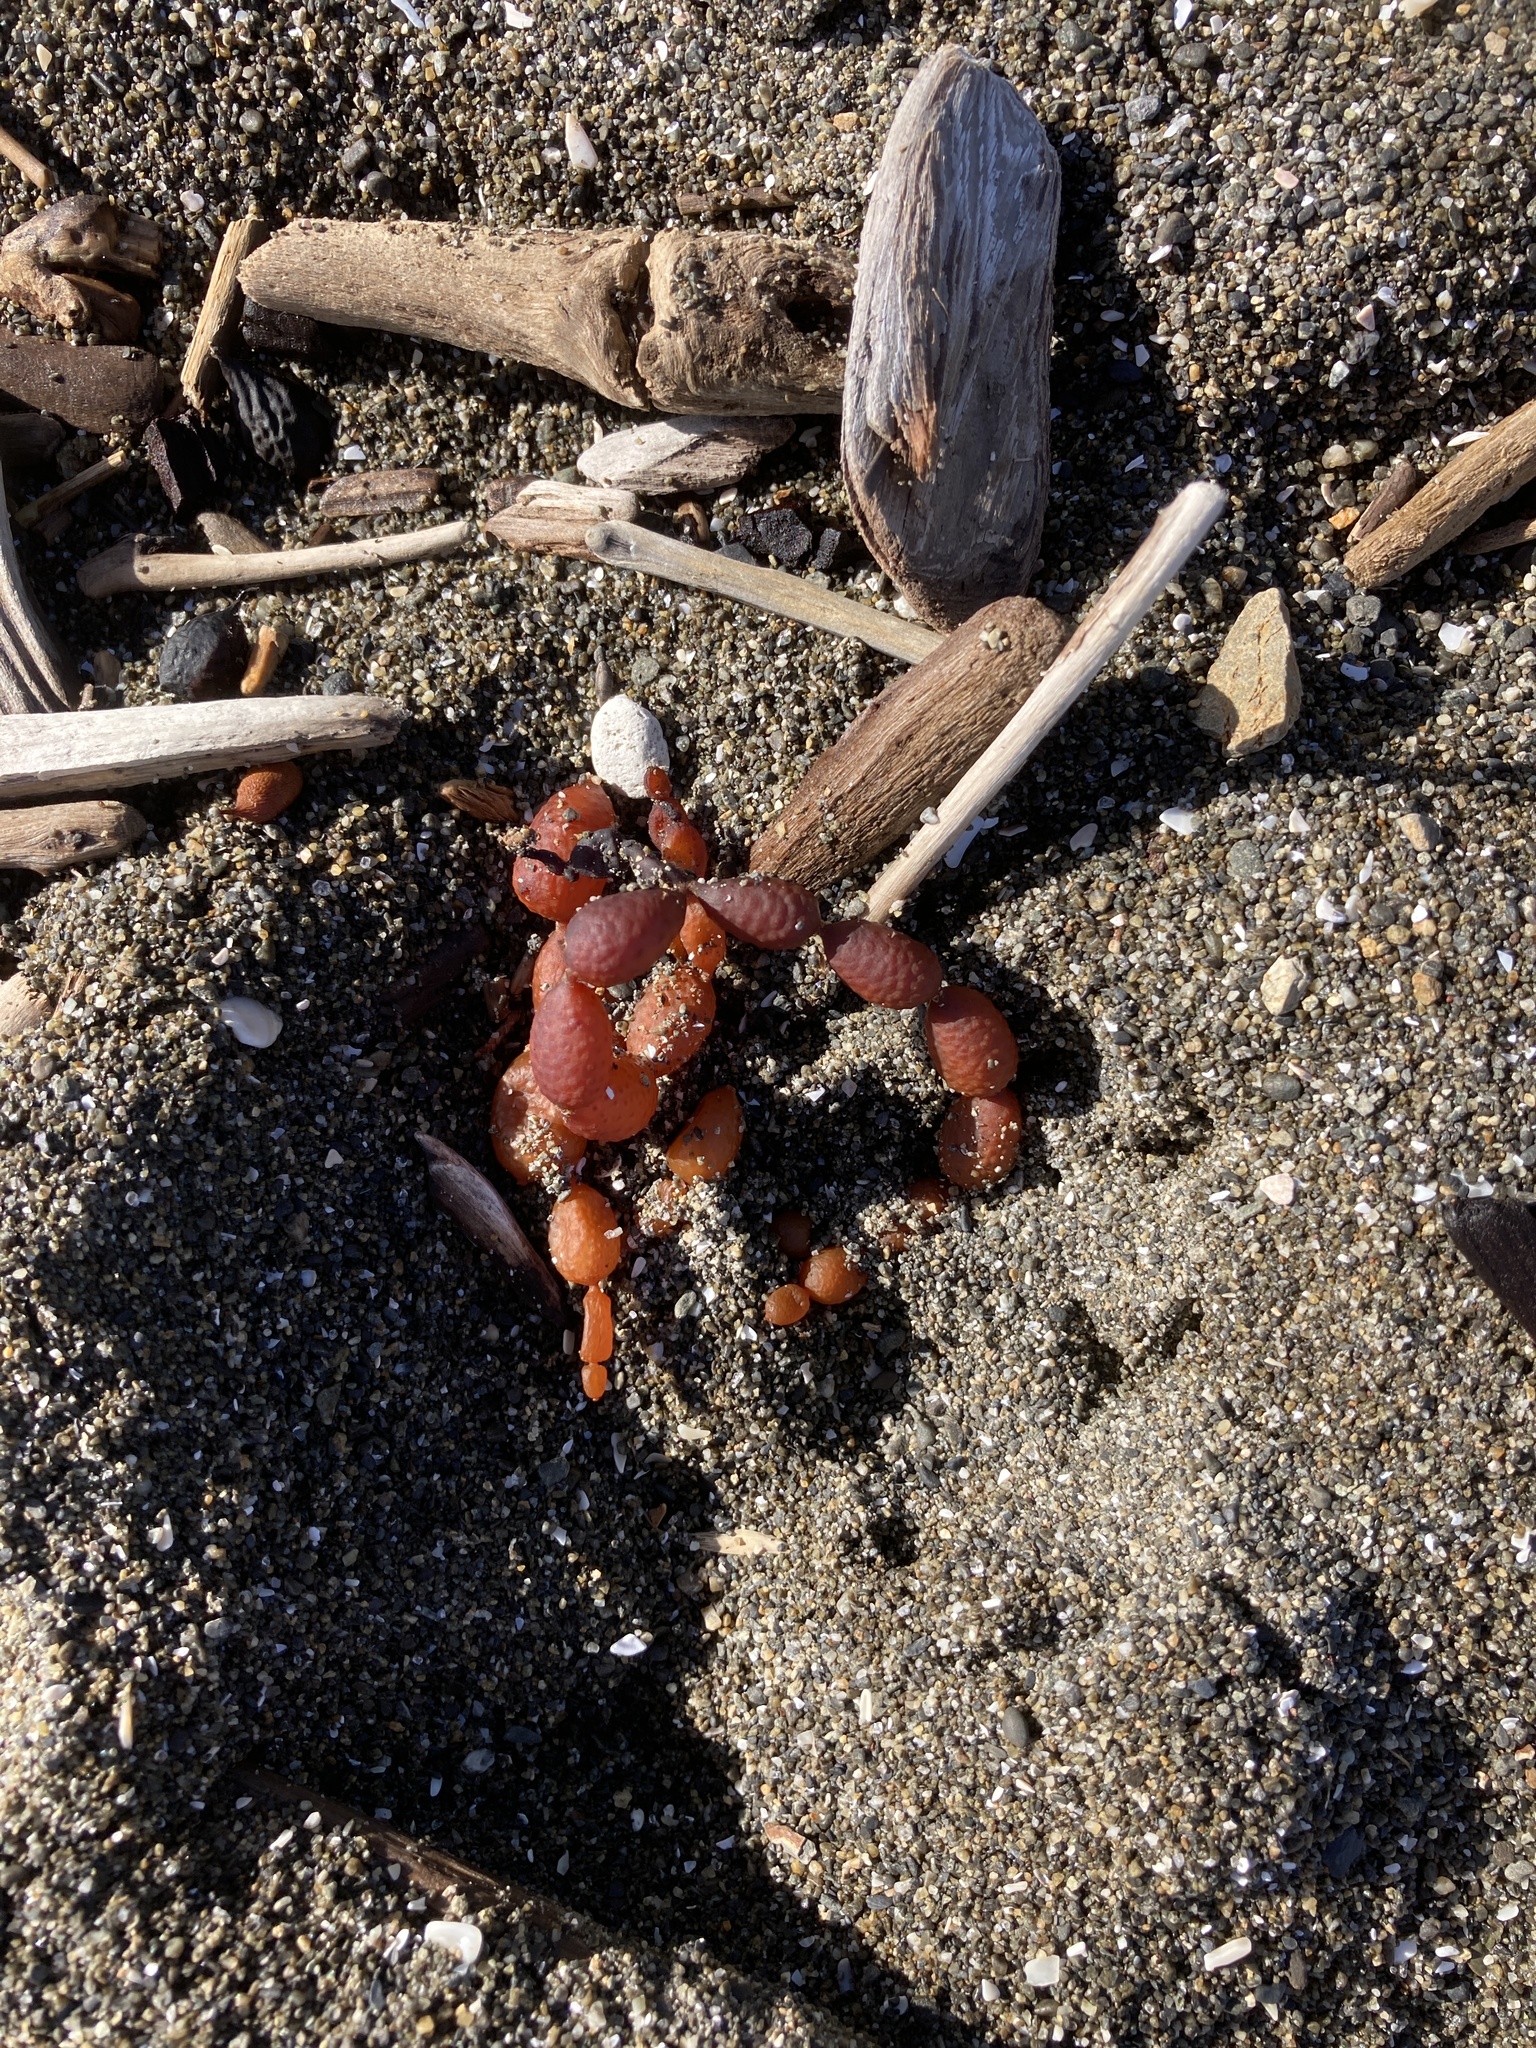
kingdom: Chromista
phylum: Ochrophyta
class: Phaeophyceae
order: Fucales
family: Hormosiraceae
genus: Hormosira
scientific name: Hormosira banksii
